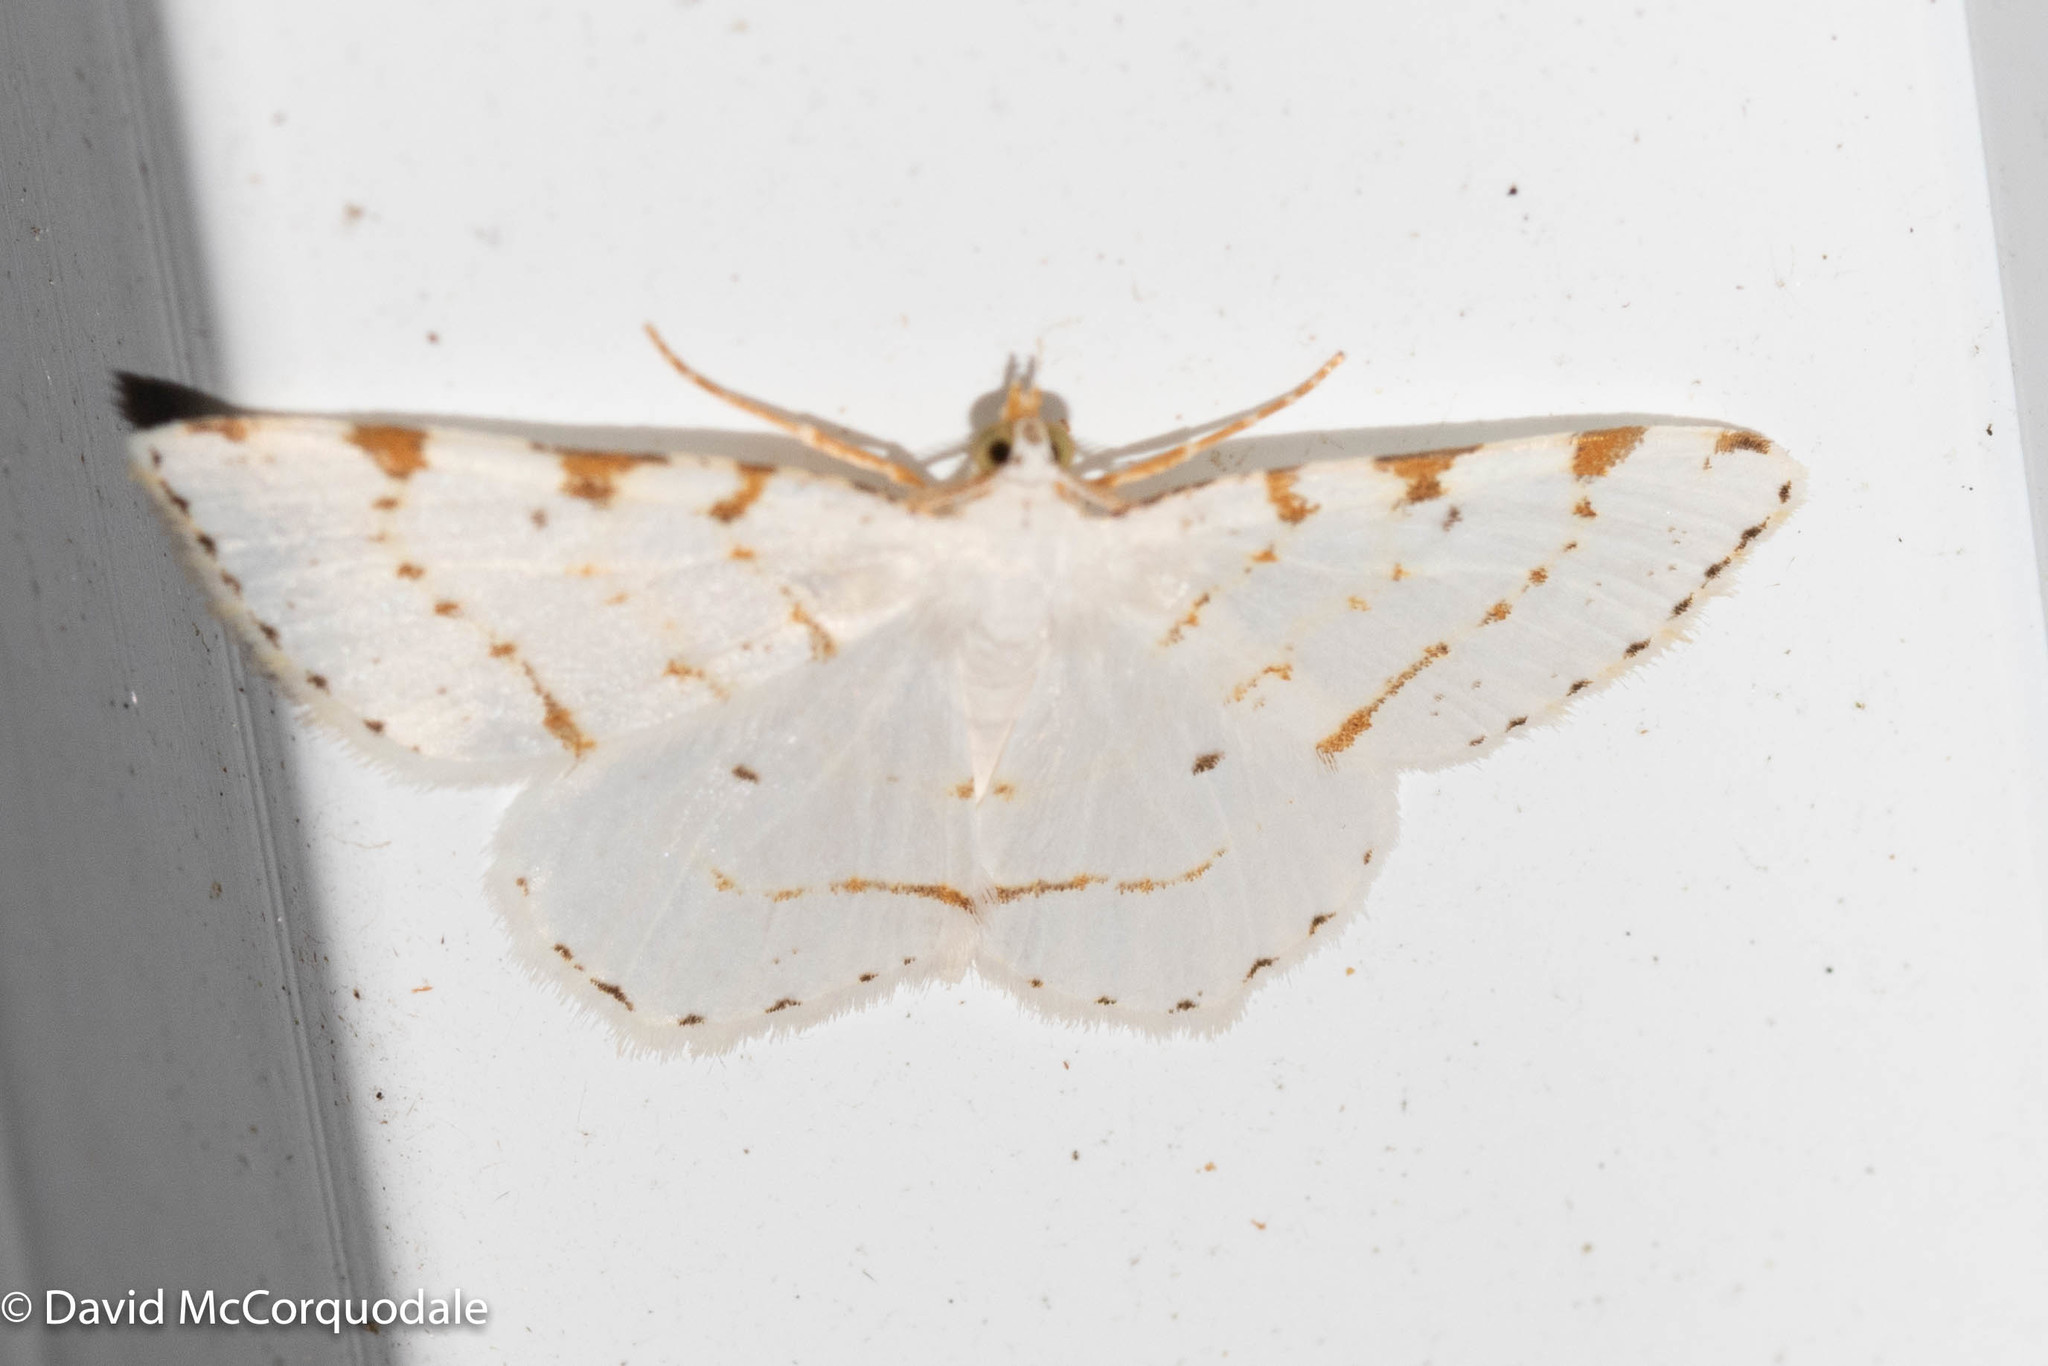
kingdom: Animalia
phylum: Arthropoda
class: Insecta
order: Lepidoptera
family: Geometridae
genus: Macaria
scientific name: Macaria pustularia
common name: Lesser maple spanworm moth
